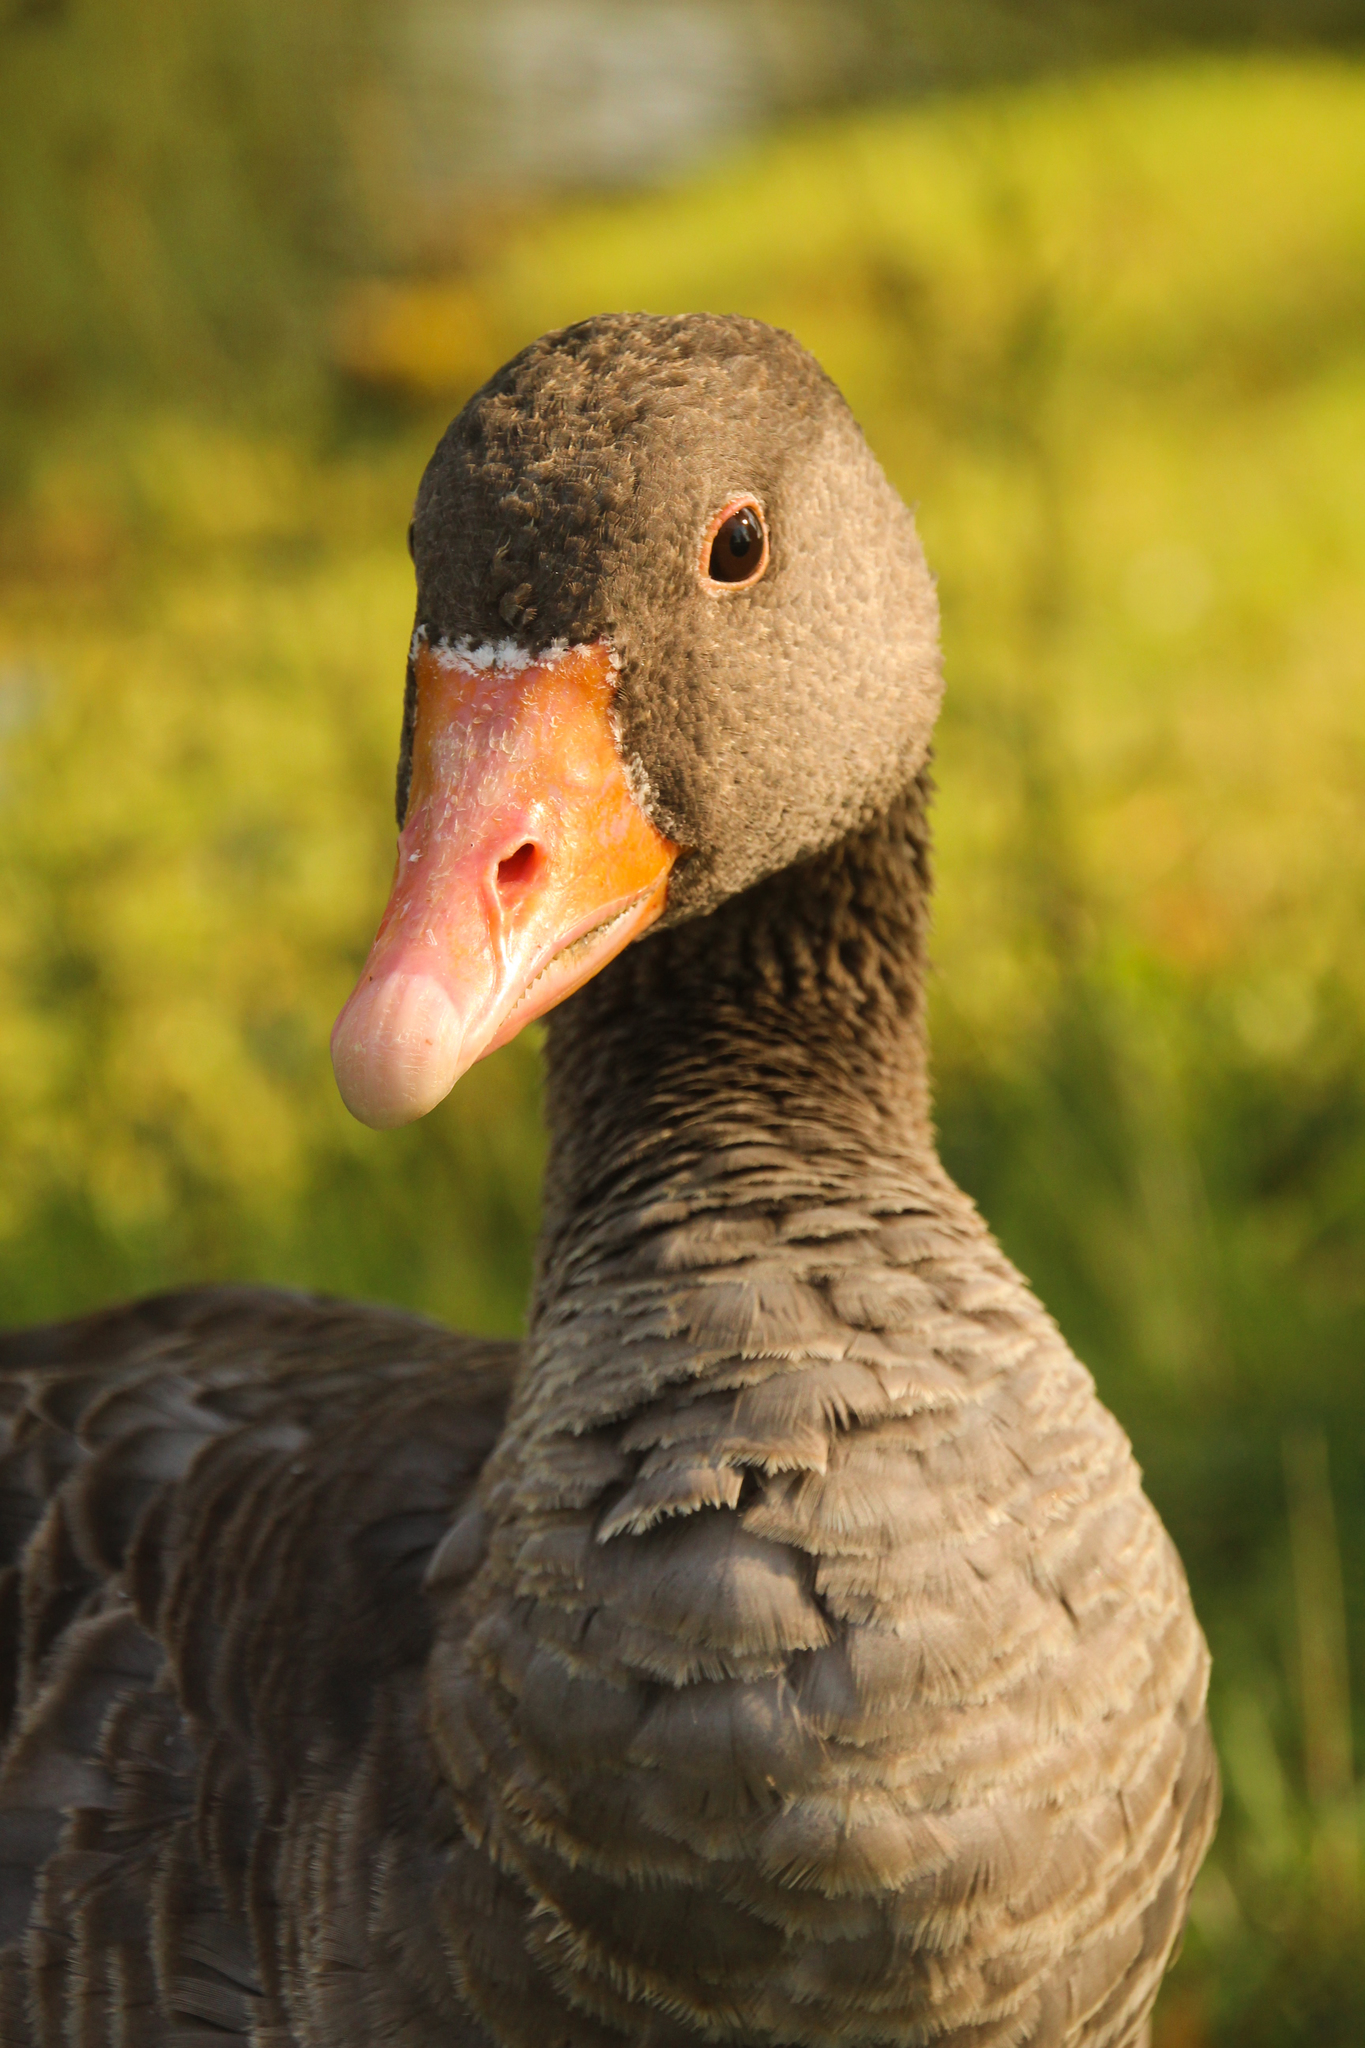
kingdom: Animalia
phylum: Chordata
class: Aves
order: Anseriformes
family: Anatidae
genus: Anser
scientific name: Anser anser
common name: Greylag goose
